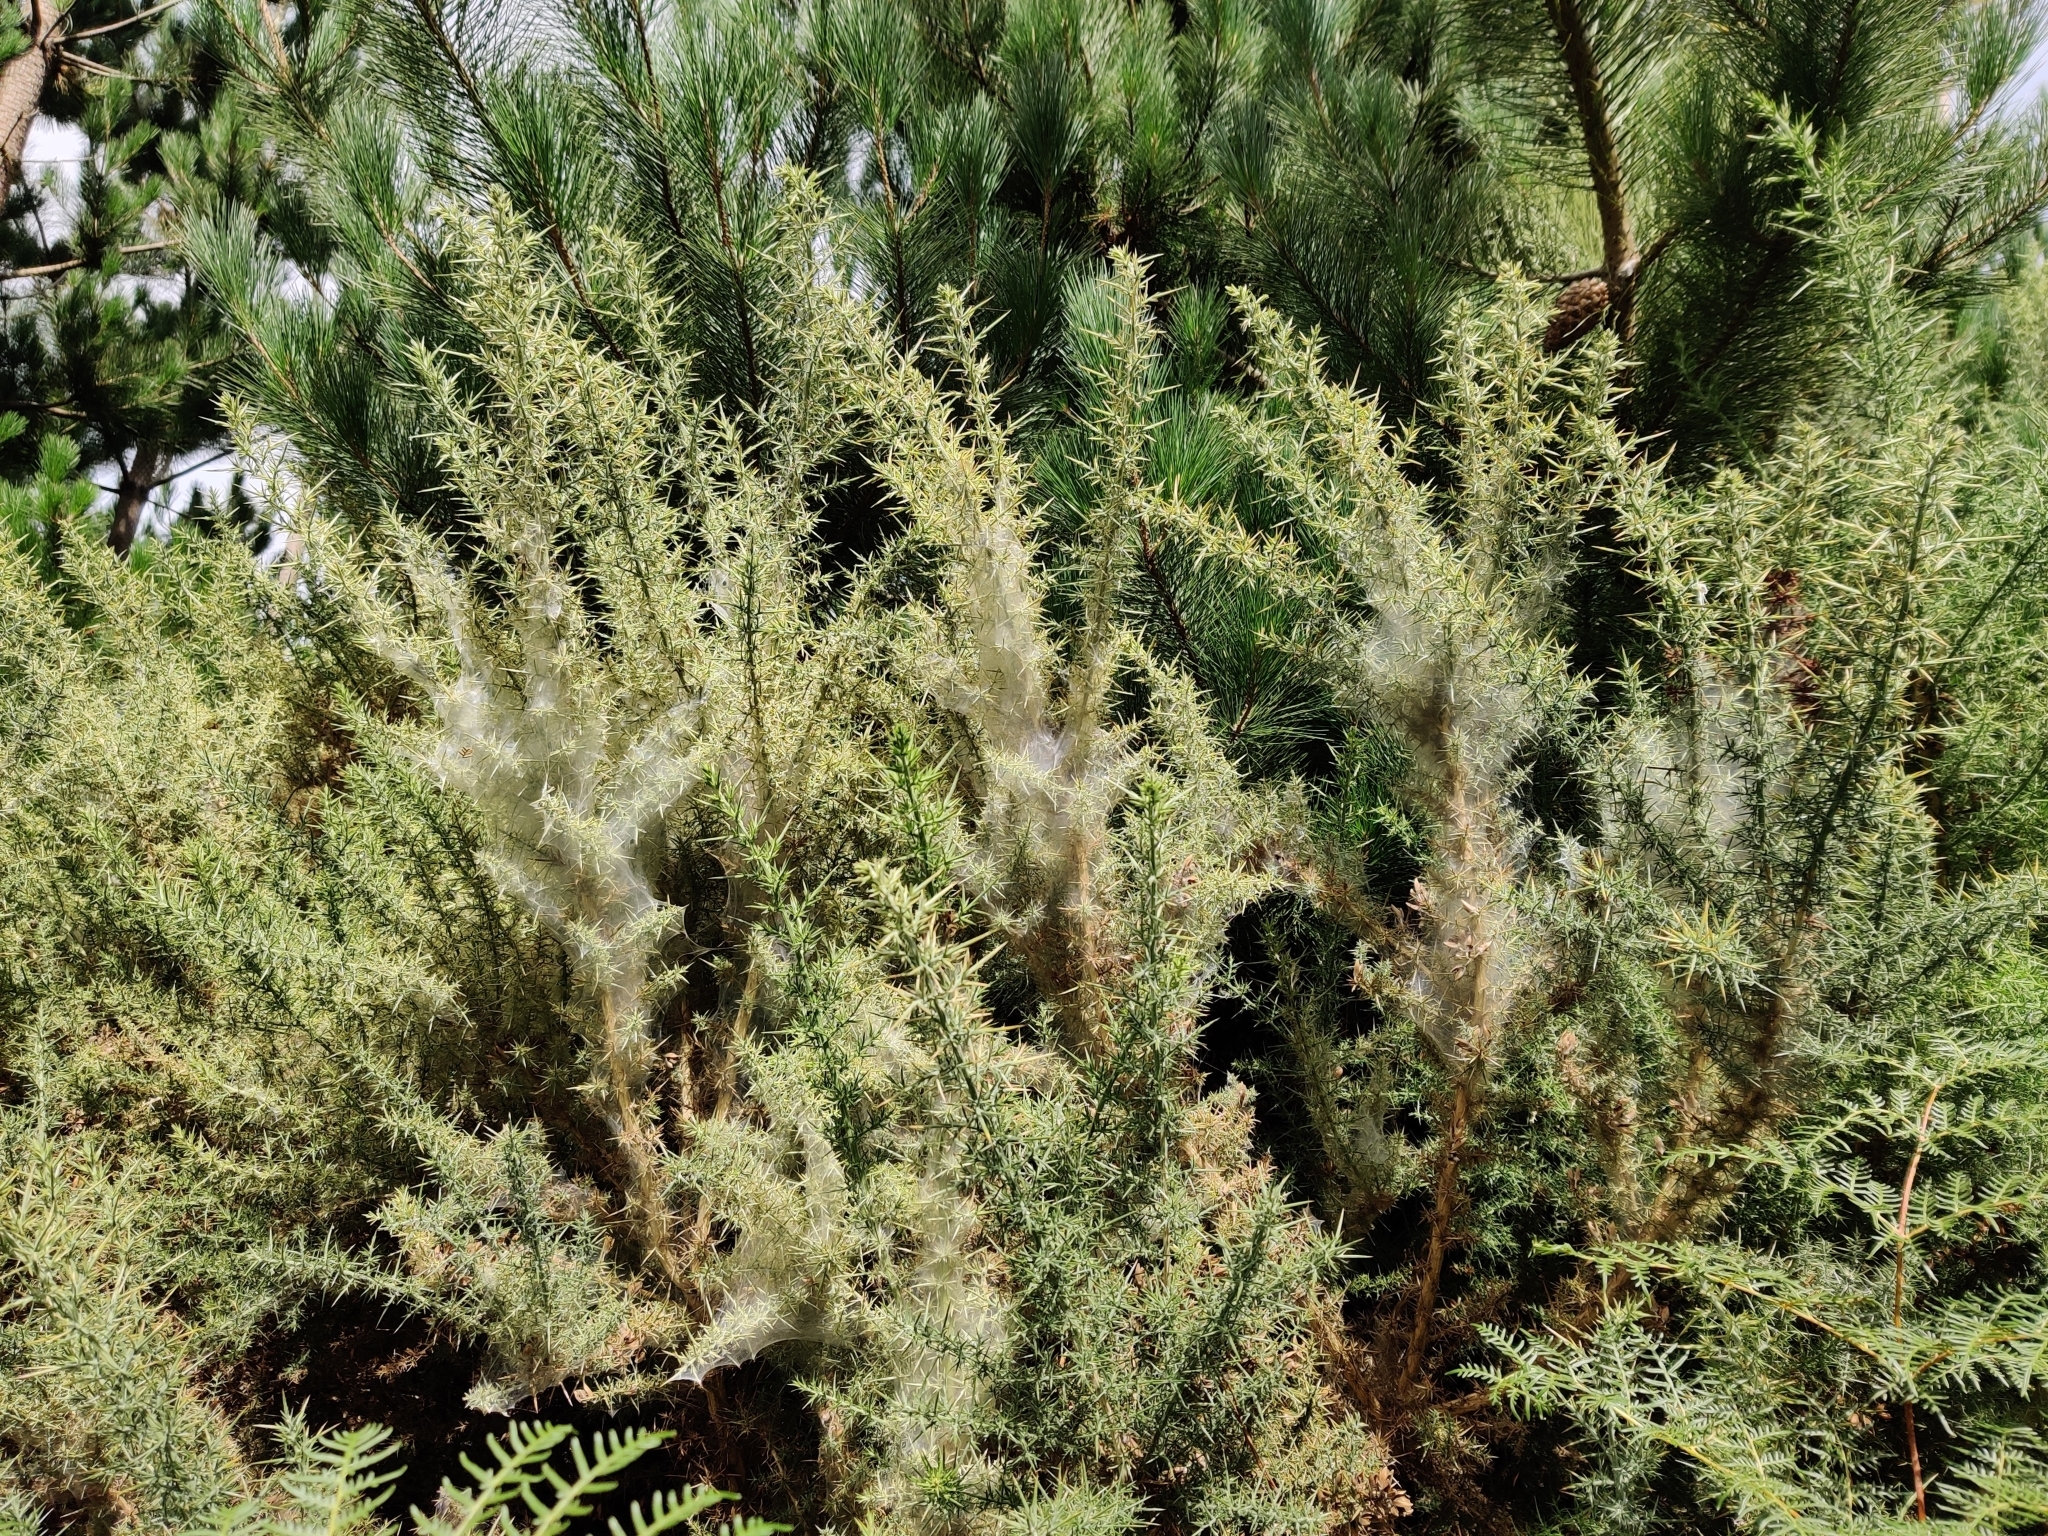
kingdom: Animalia
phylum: Arthropoda
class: Arachnida
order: Trombidiformes
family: Tetranychidae
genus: Tetranychus
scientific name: Tetranychus lintearius
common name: Gorse spider mite
